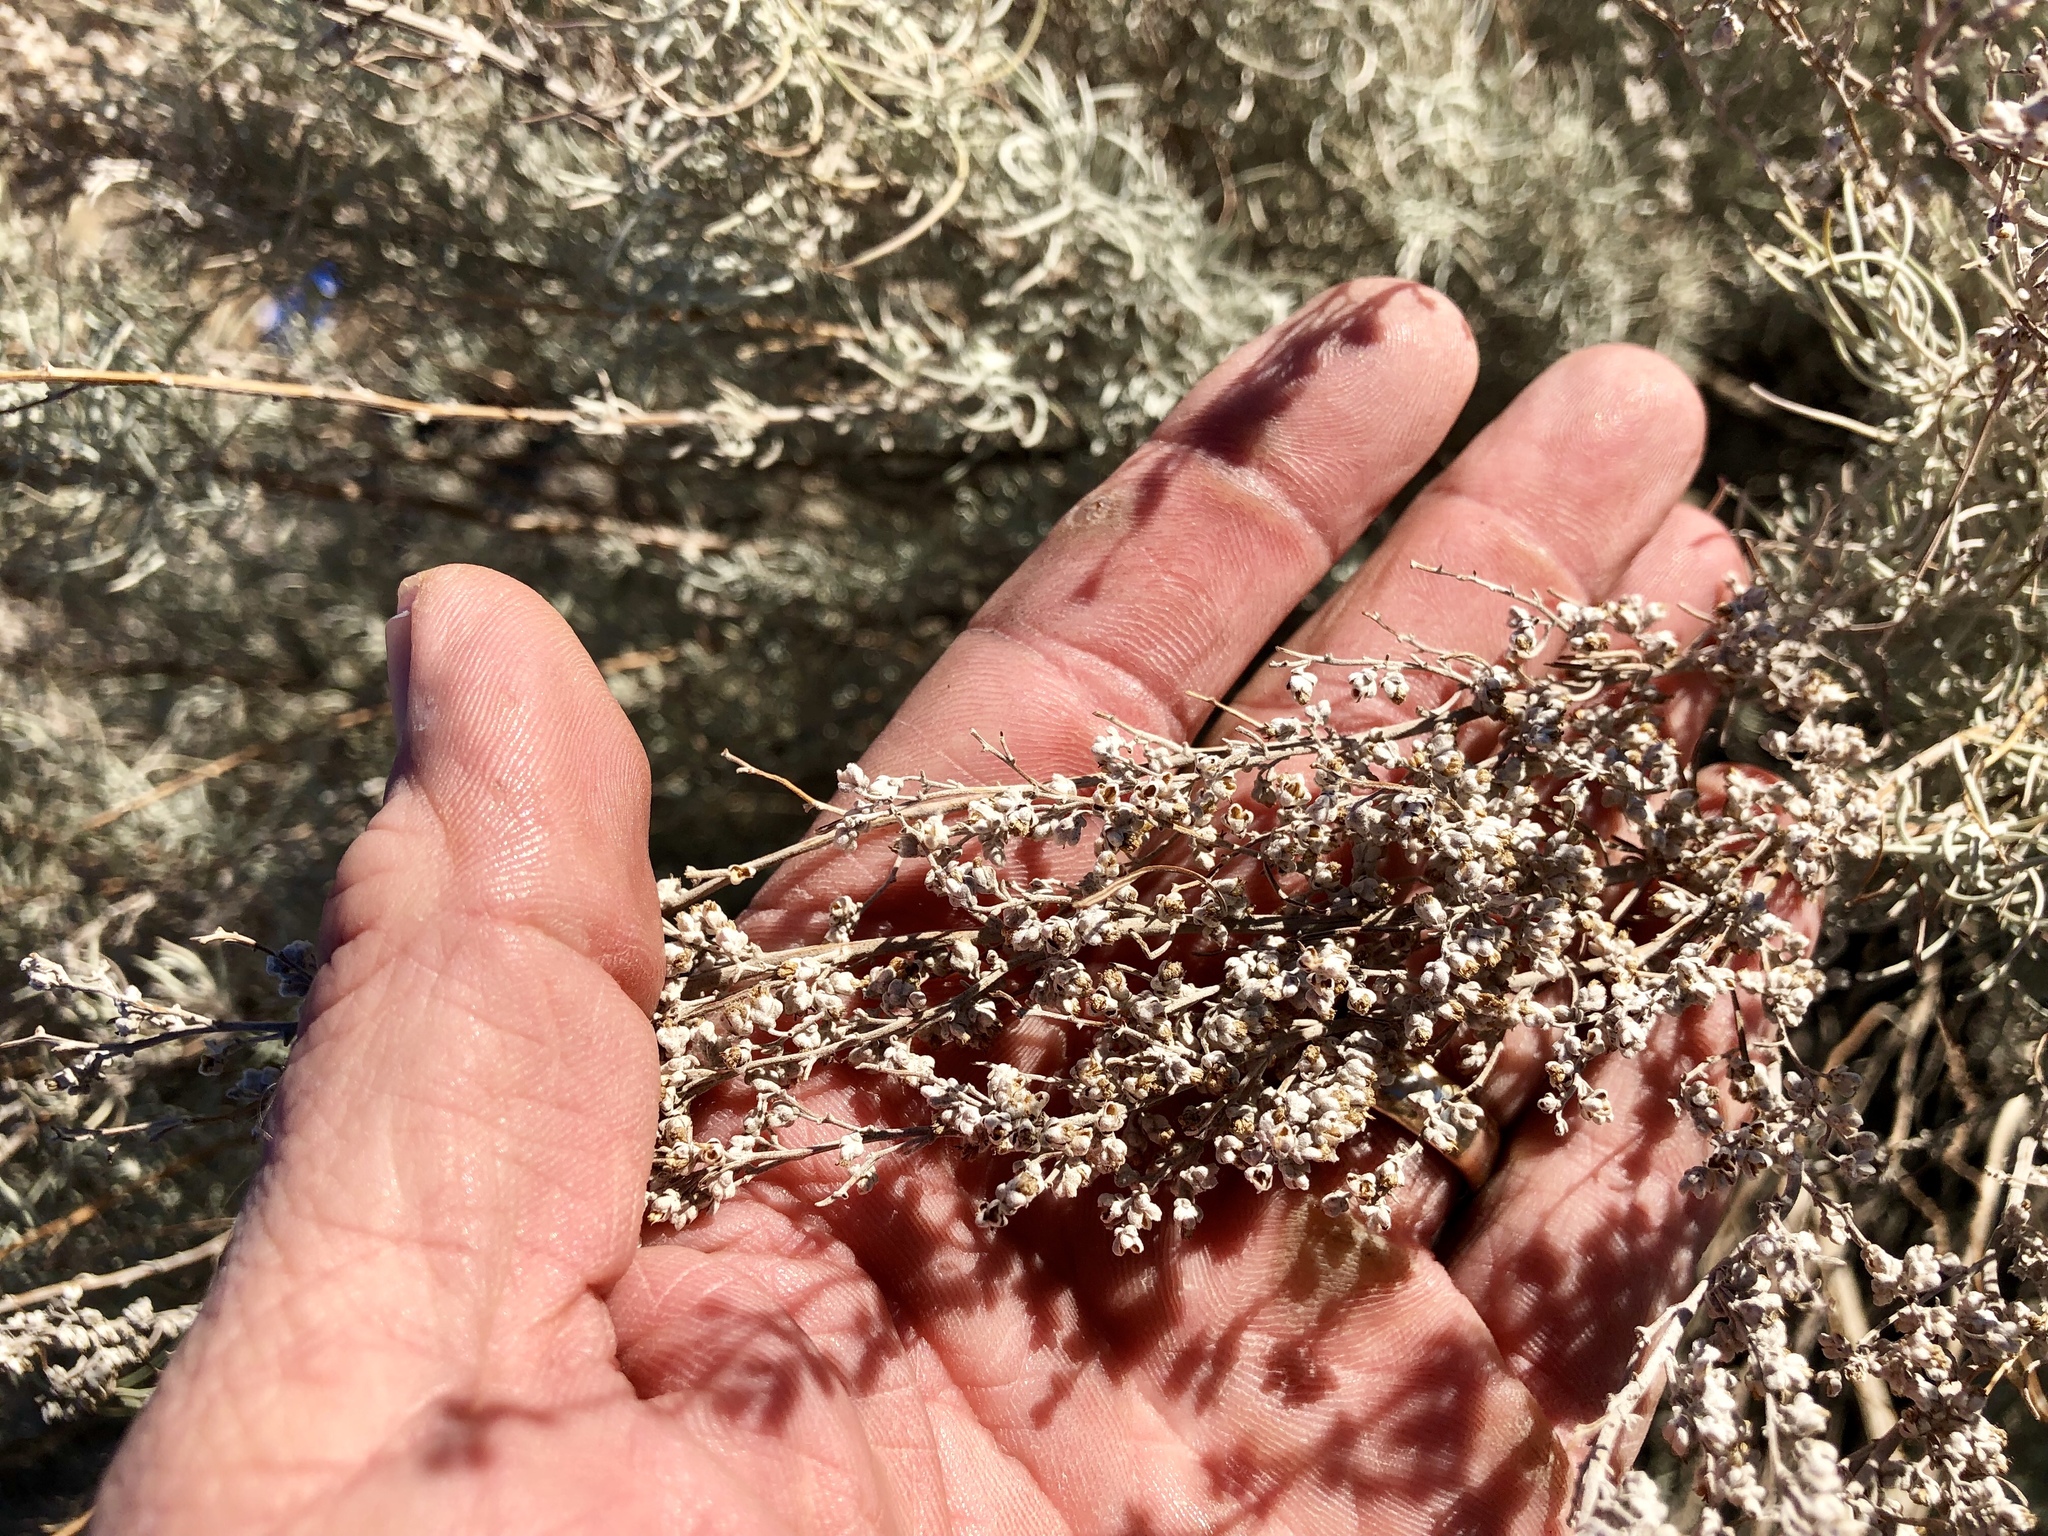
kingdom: Plantae
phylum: Tracheophyta
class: Magnoliopsida
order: Asterales
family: Asteraceae
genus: Artemisia
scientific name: Artemisia filifolia
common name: Sand-sage
